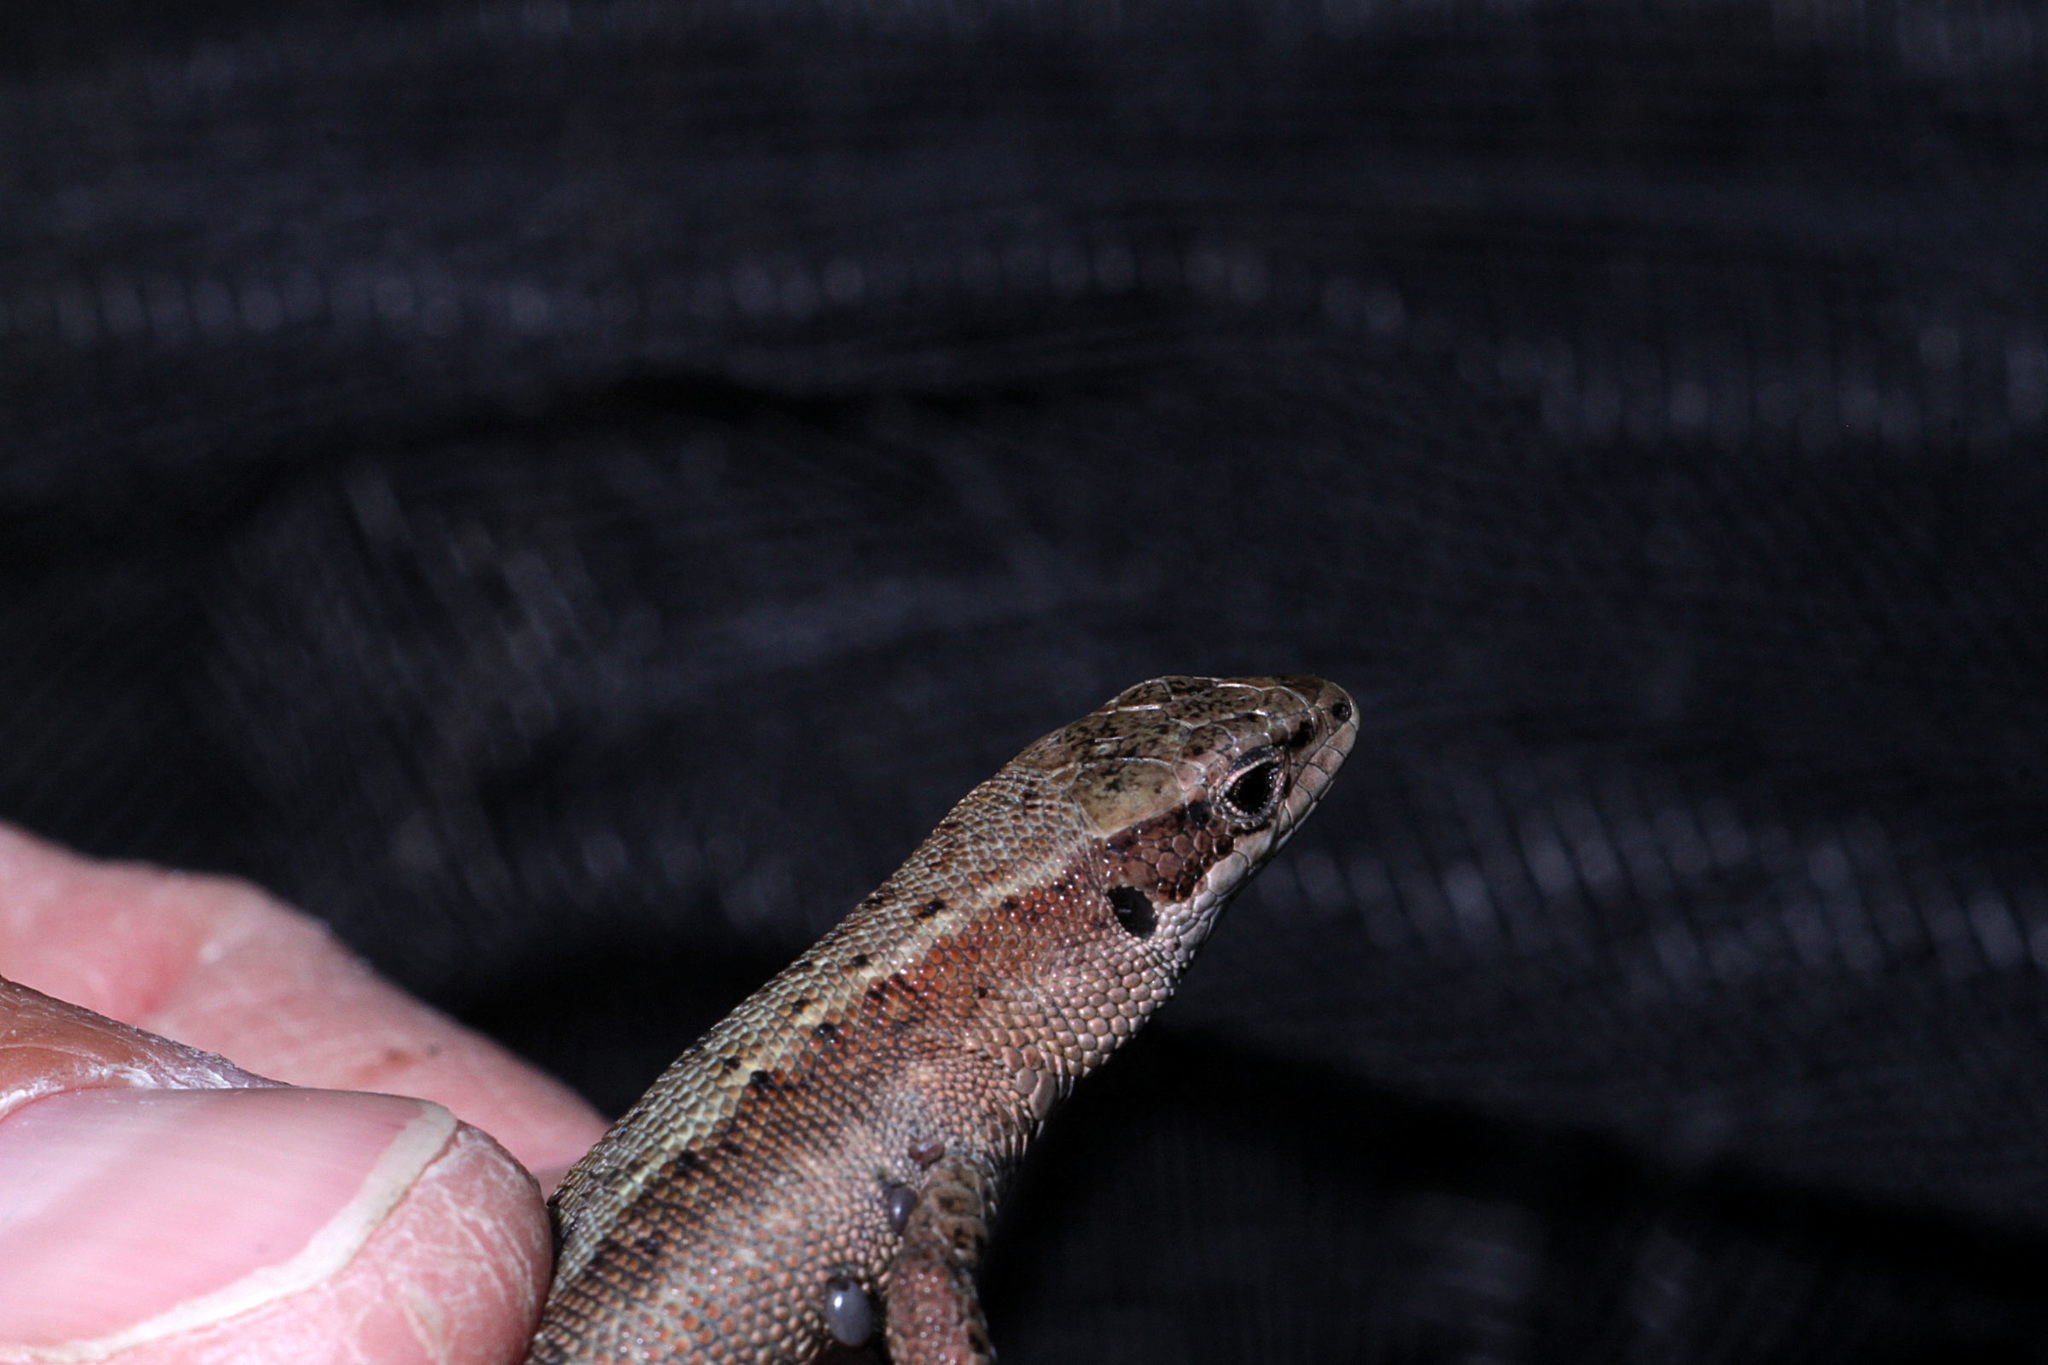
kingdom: Animalia
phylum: Chordata
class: Squamata
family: Lacertidae
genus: Zootoca
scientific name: Zootoca vivipara
